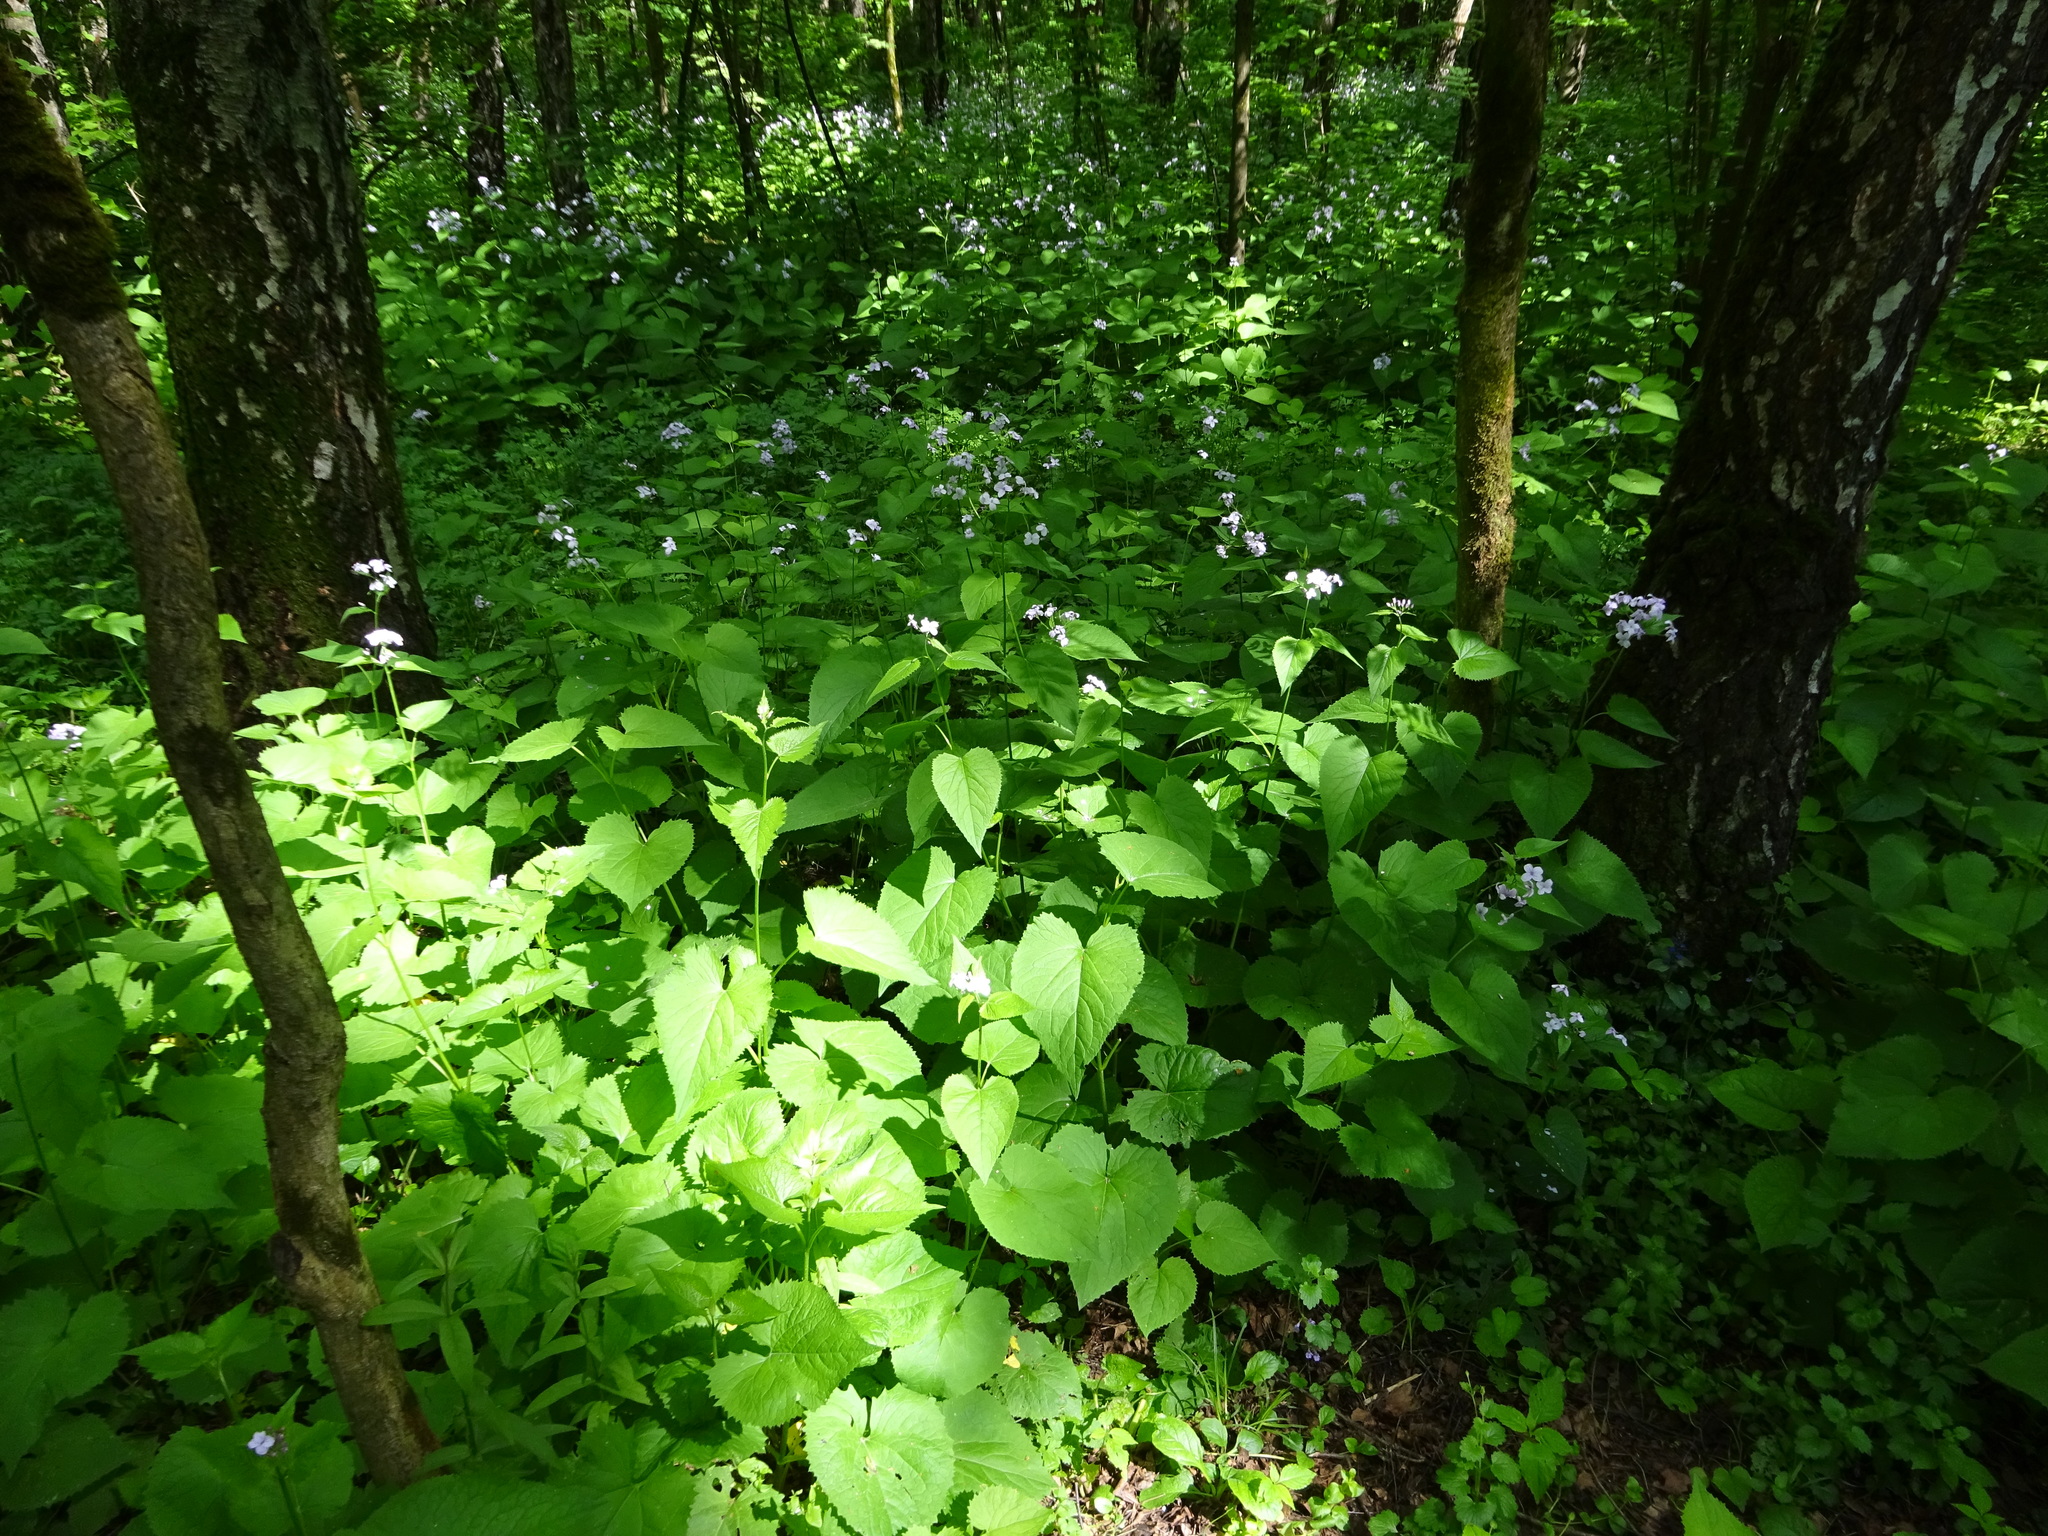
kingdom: Plantae
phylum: Tracheophyta
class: Magnoliopsida
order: Brassicales
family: Brassicaceae
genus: Lunaria
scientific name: Lunaria rediviva
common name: Perennial honesty
